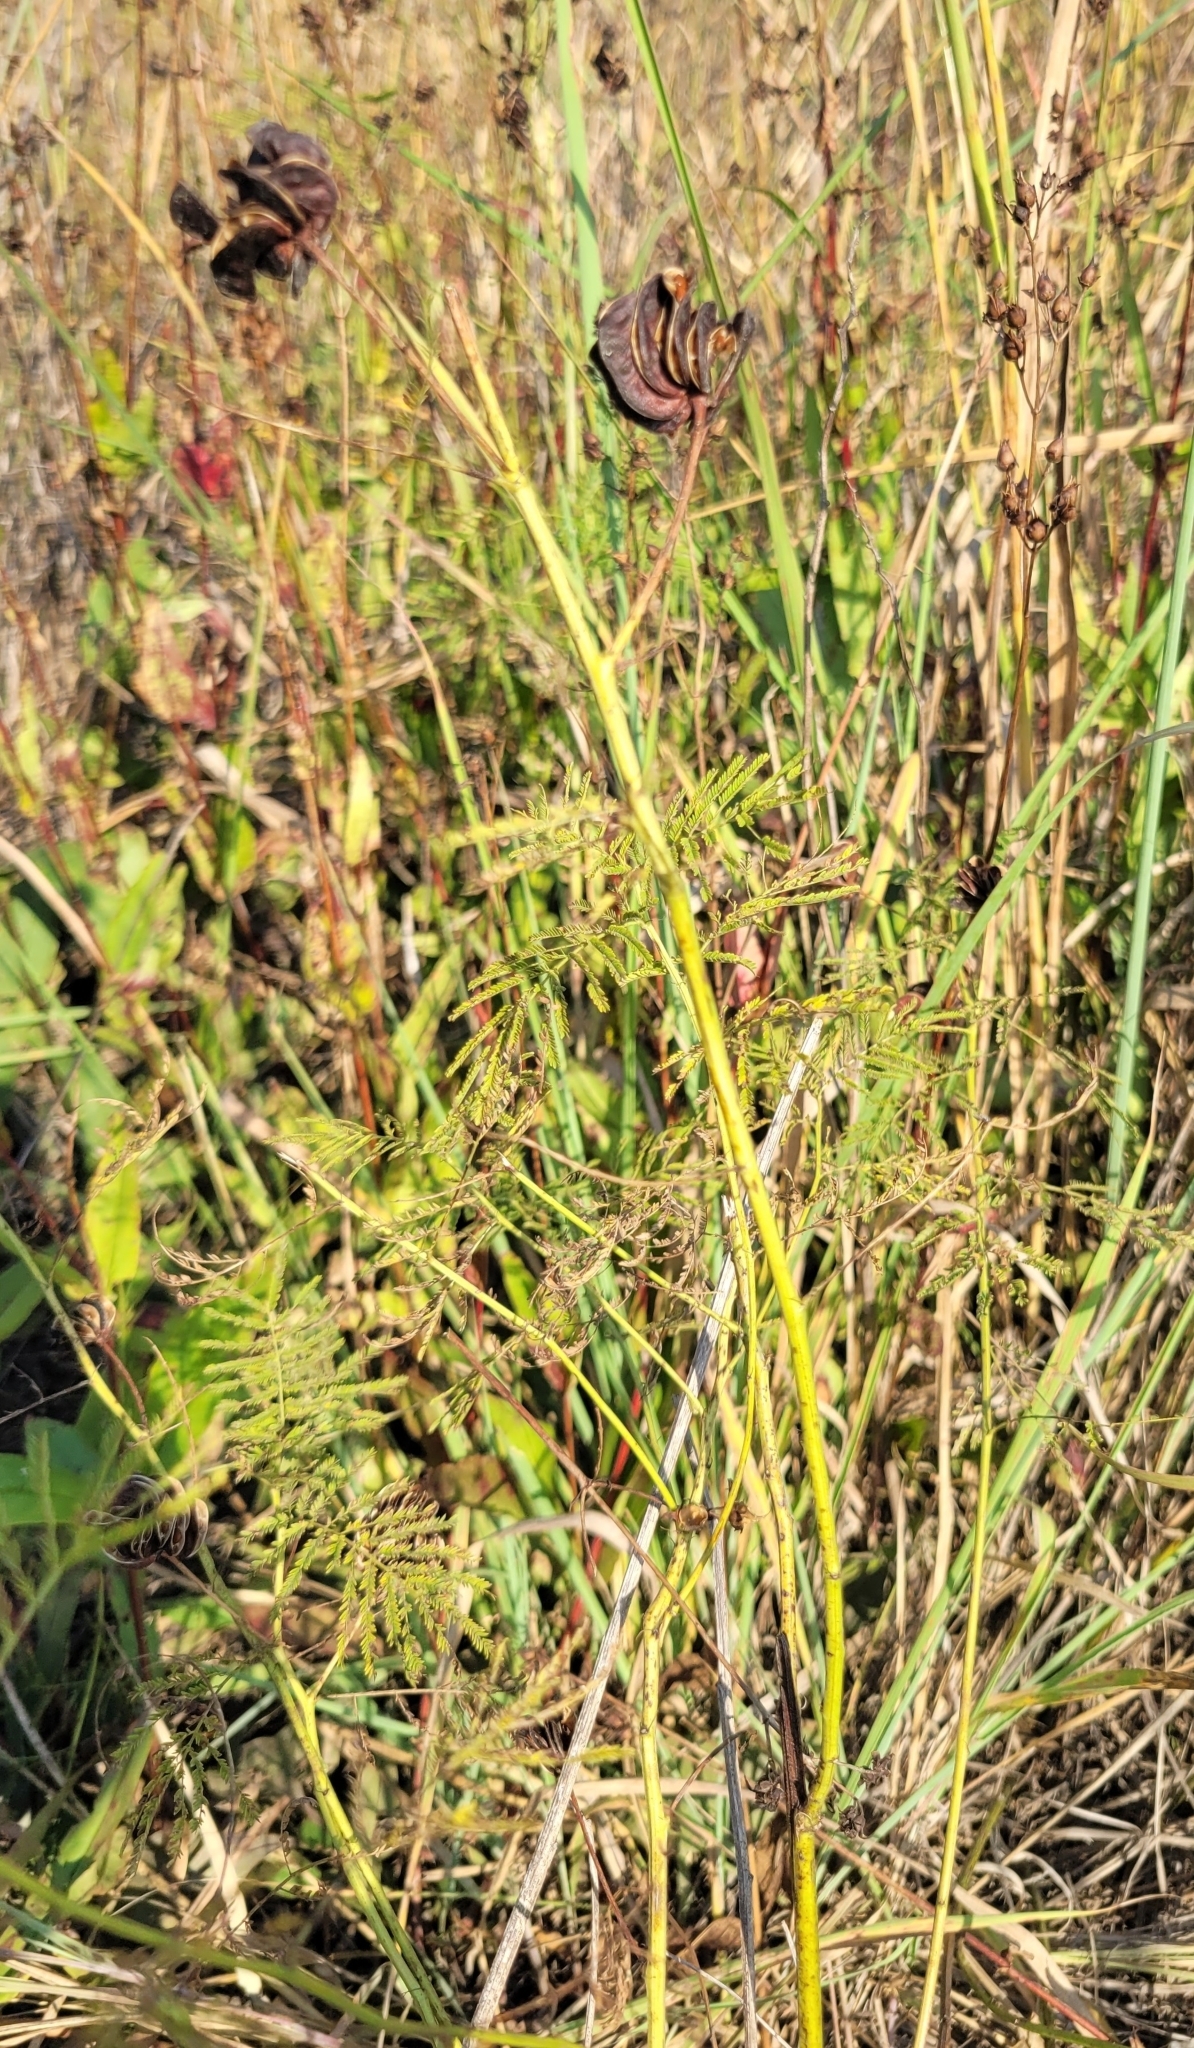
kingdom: Plantae
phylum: Tracheophyta
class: Magnoliopsida
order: Fabales
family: Fabaceae
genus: Desmanthus
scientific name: Desmanthus illinoensis
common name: Illinois bundle-flower
